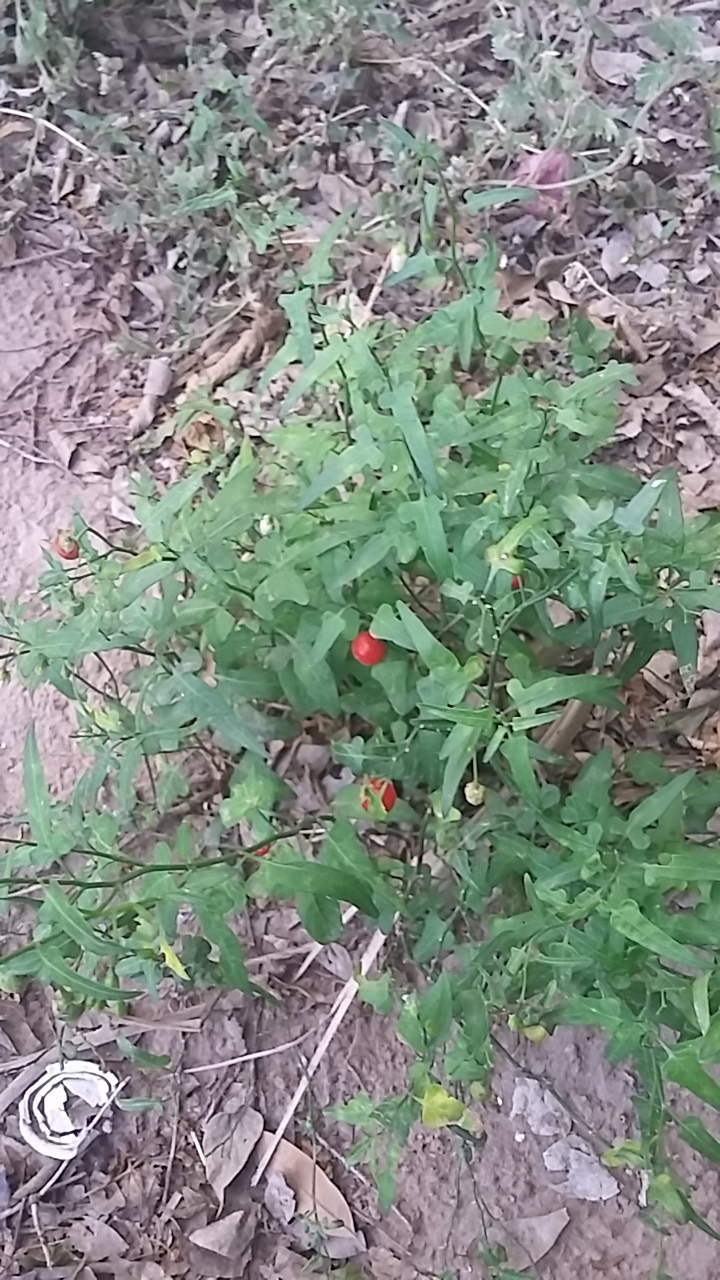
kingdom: Plantae
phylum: Tracheophyta
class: Magnoliopsida
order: Solanales
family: Solanaceae
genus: Solanum
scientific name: Solanum triquetrum
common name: Texas nightshade
